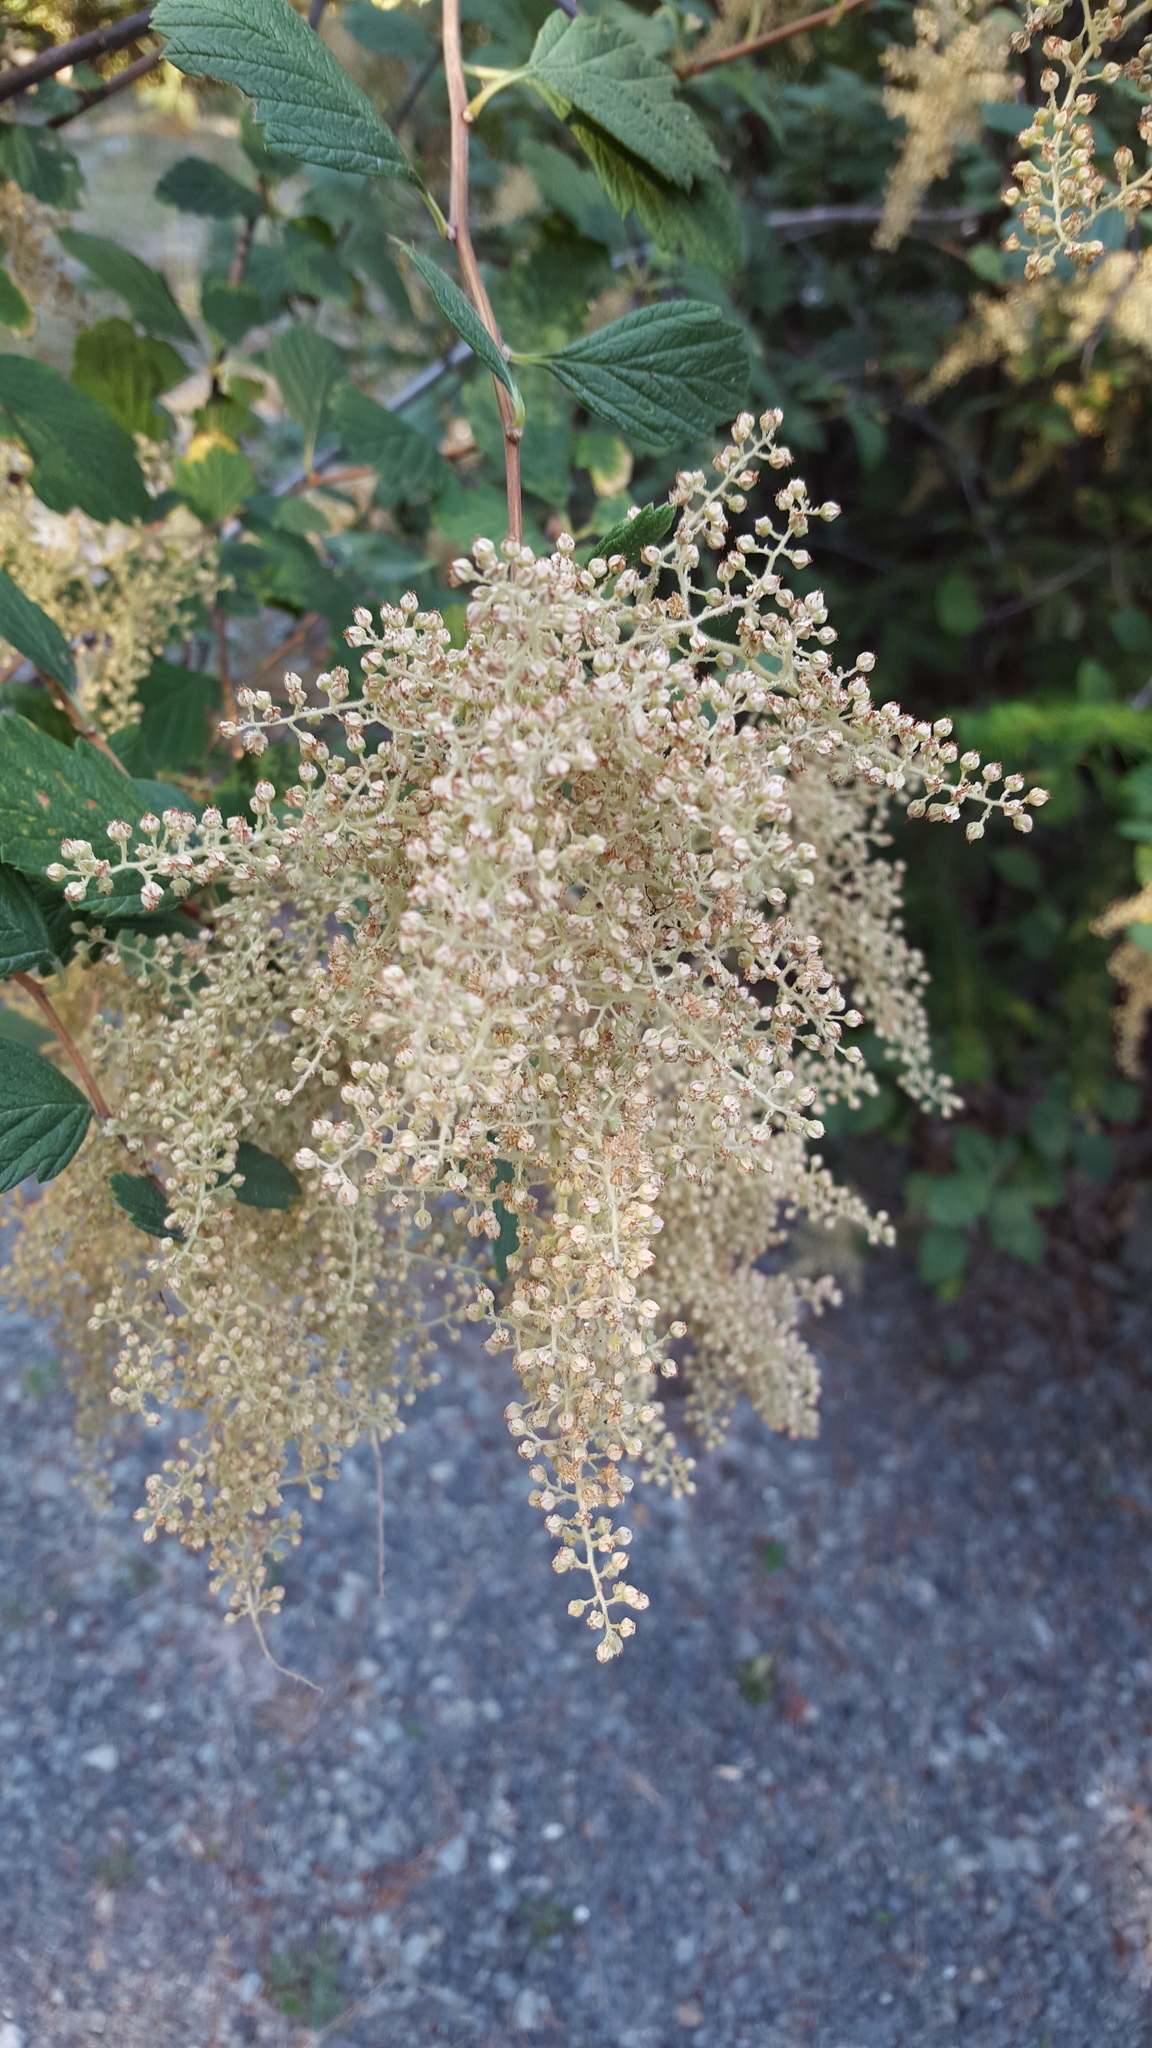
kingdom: Plantae
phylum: Tracheophyta
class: Magnoliopsida
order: Rosales
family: Rosaceae
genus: Holodiscus
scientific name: Holodiscus discolor
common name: Oceanspray
